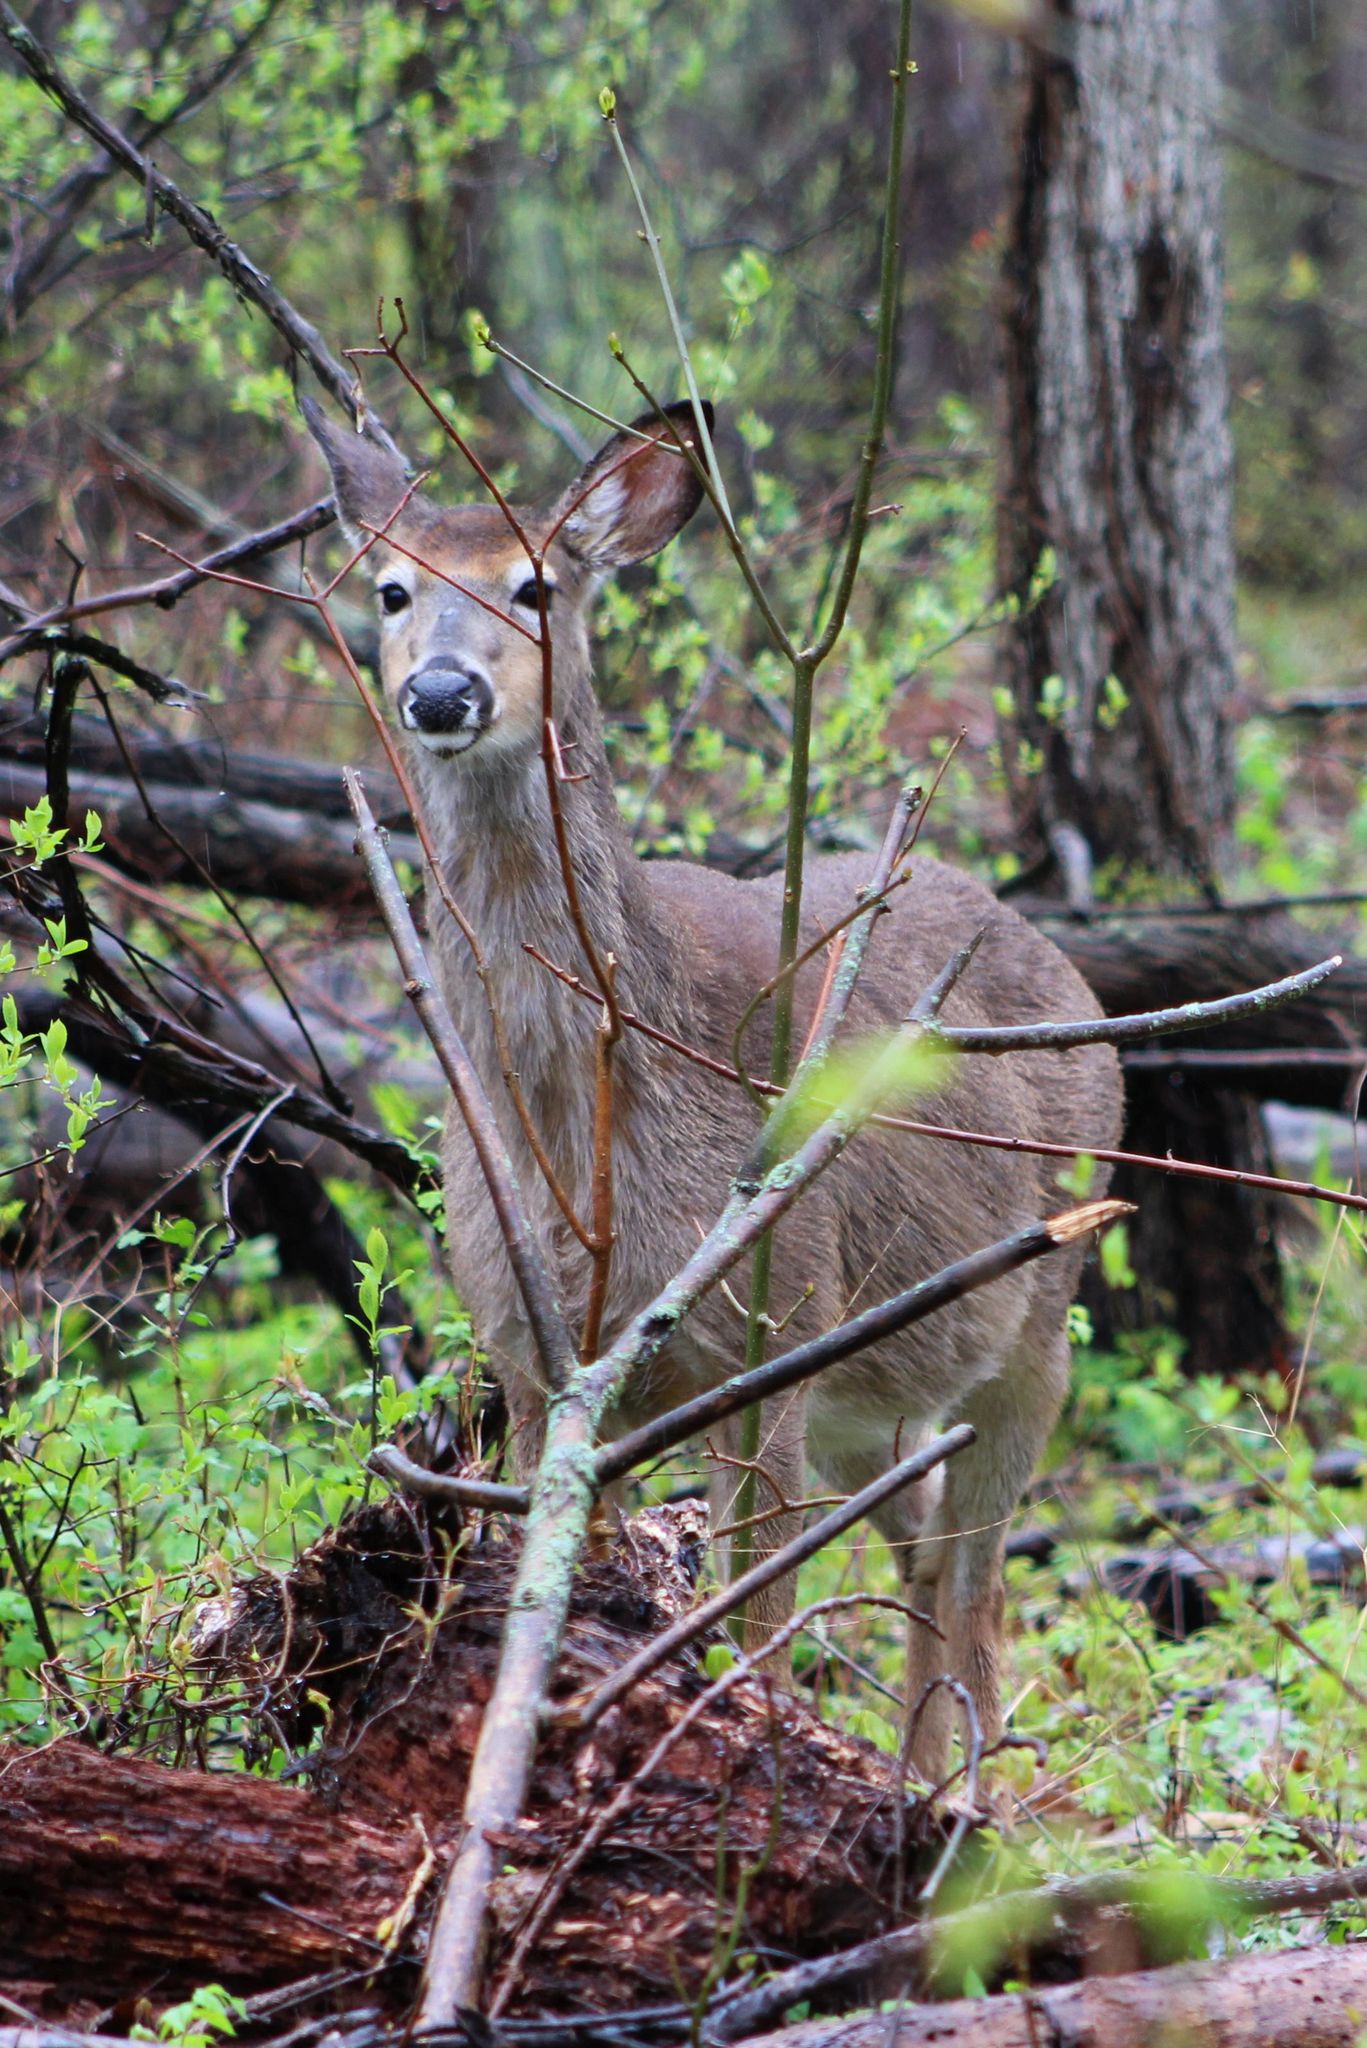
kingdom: Animalia
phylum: Chordata
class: Mammalia
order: Artiodactyla
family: Cervidae
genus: Odocoileus
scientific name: Odocoileus virginianus
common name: White-tailed deer
